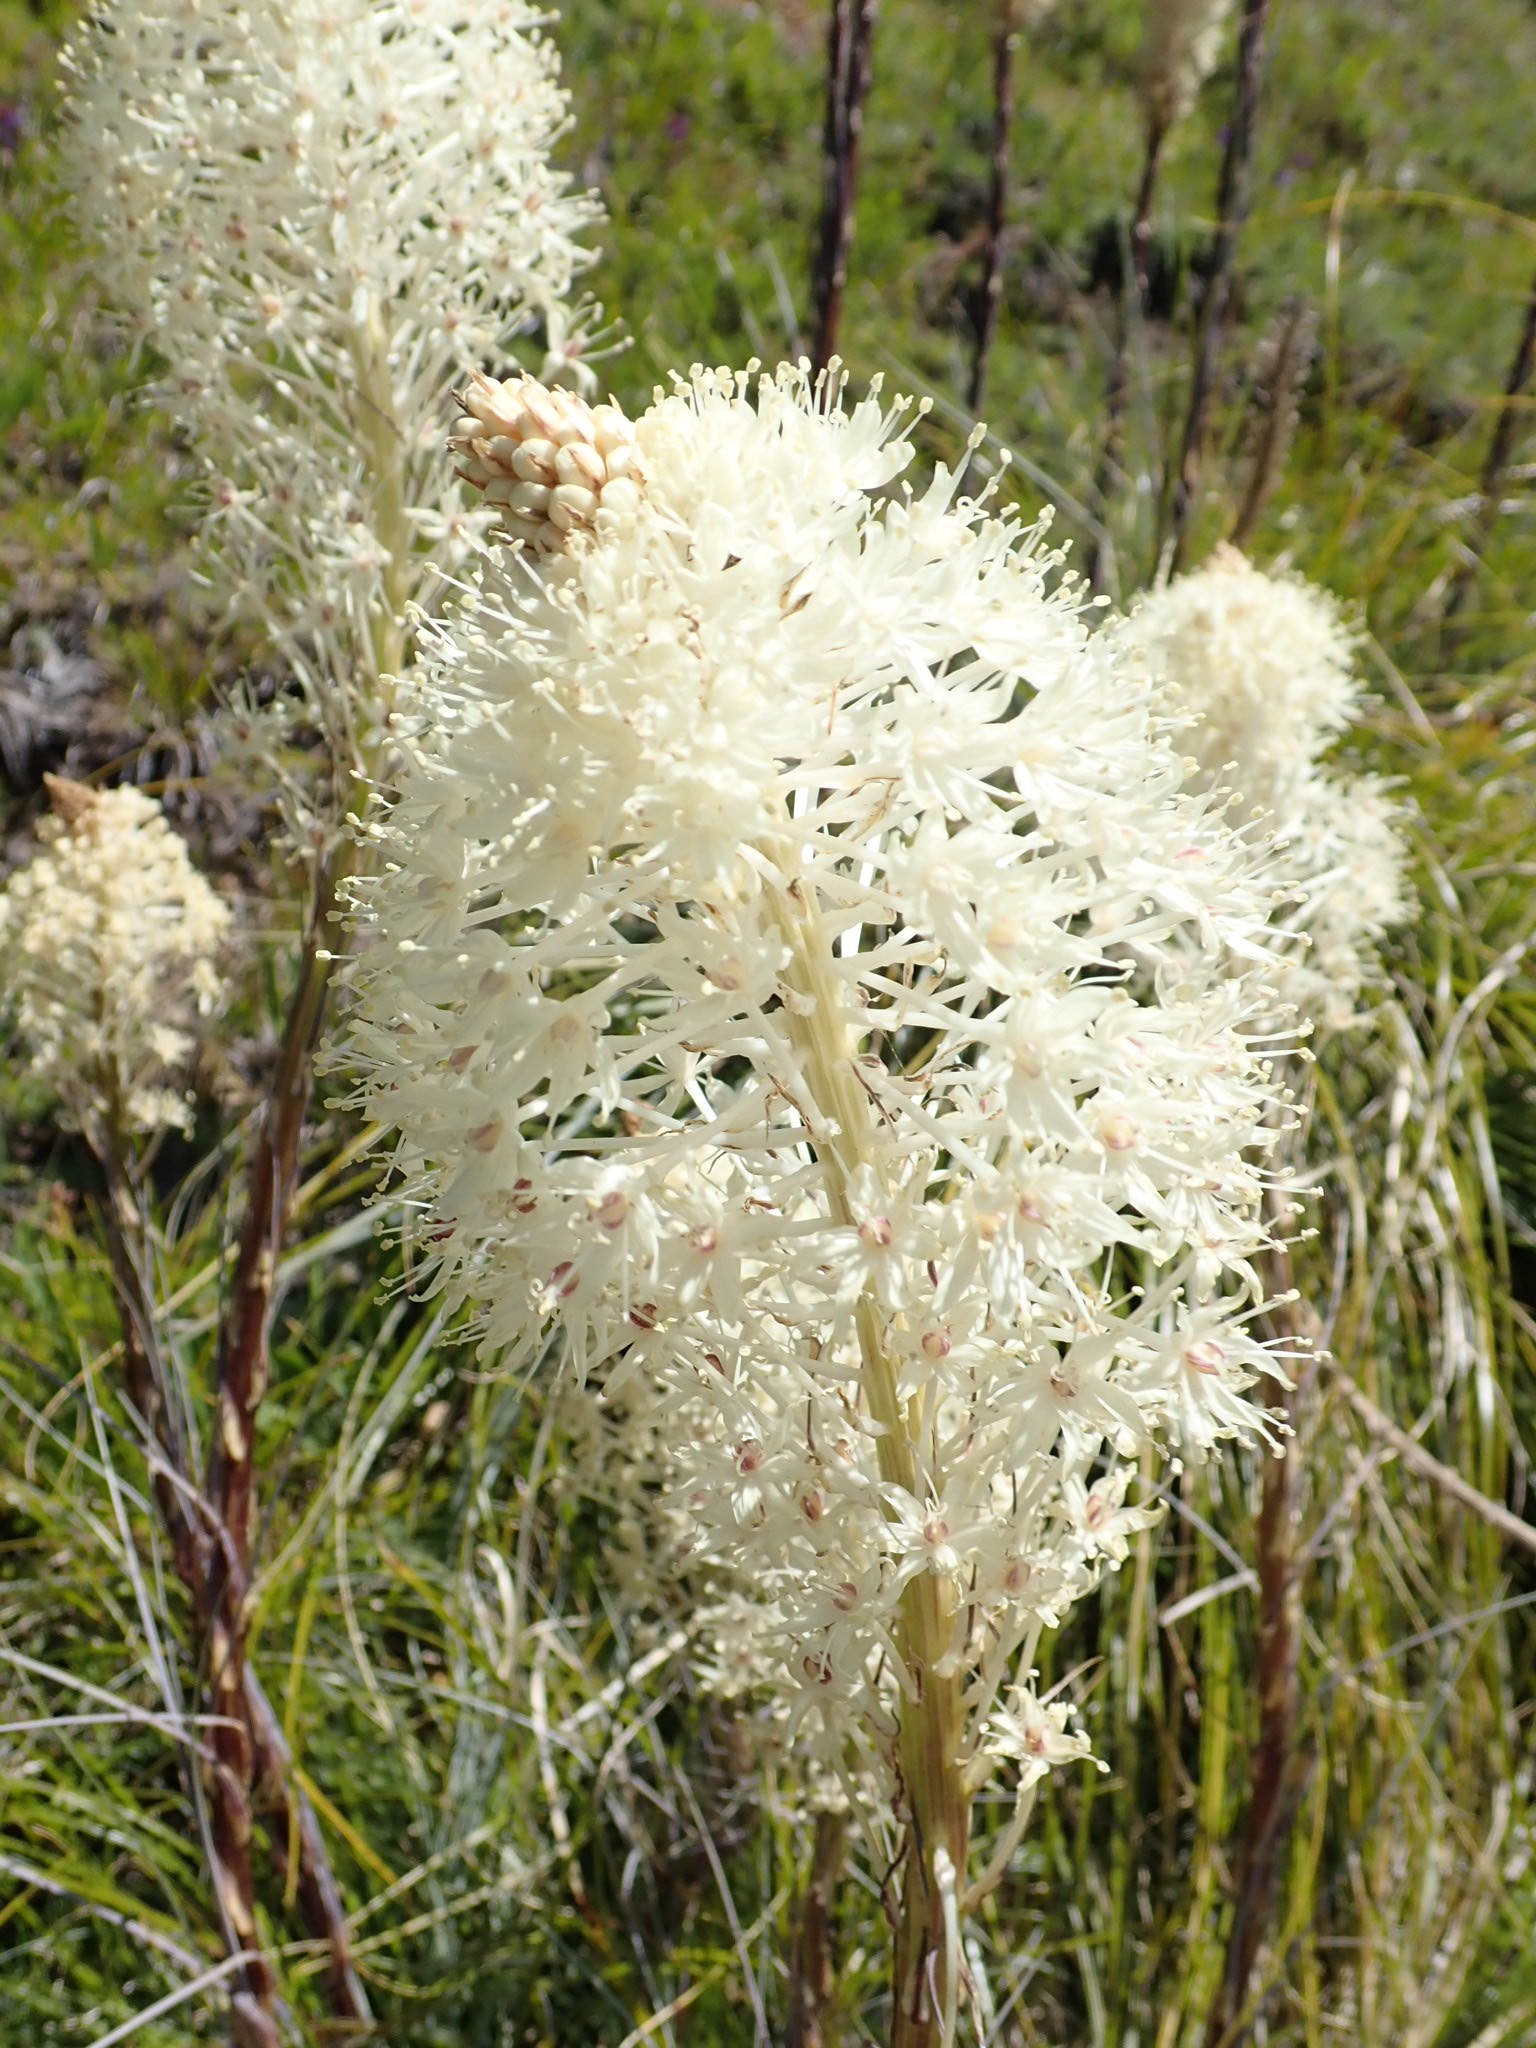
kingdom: Plantae
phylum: Tracheophyta
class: Liliopsida
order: Liliales
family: Melanthiaceae
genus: Xerophyllum
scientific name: Xerophyllum tenax
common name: Bear-grass
